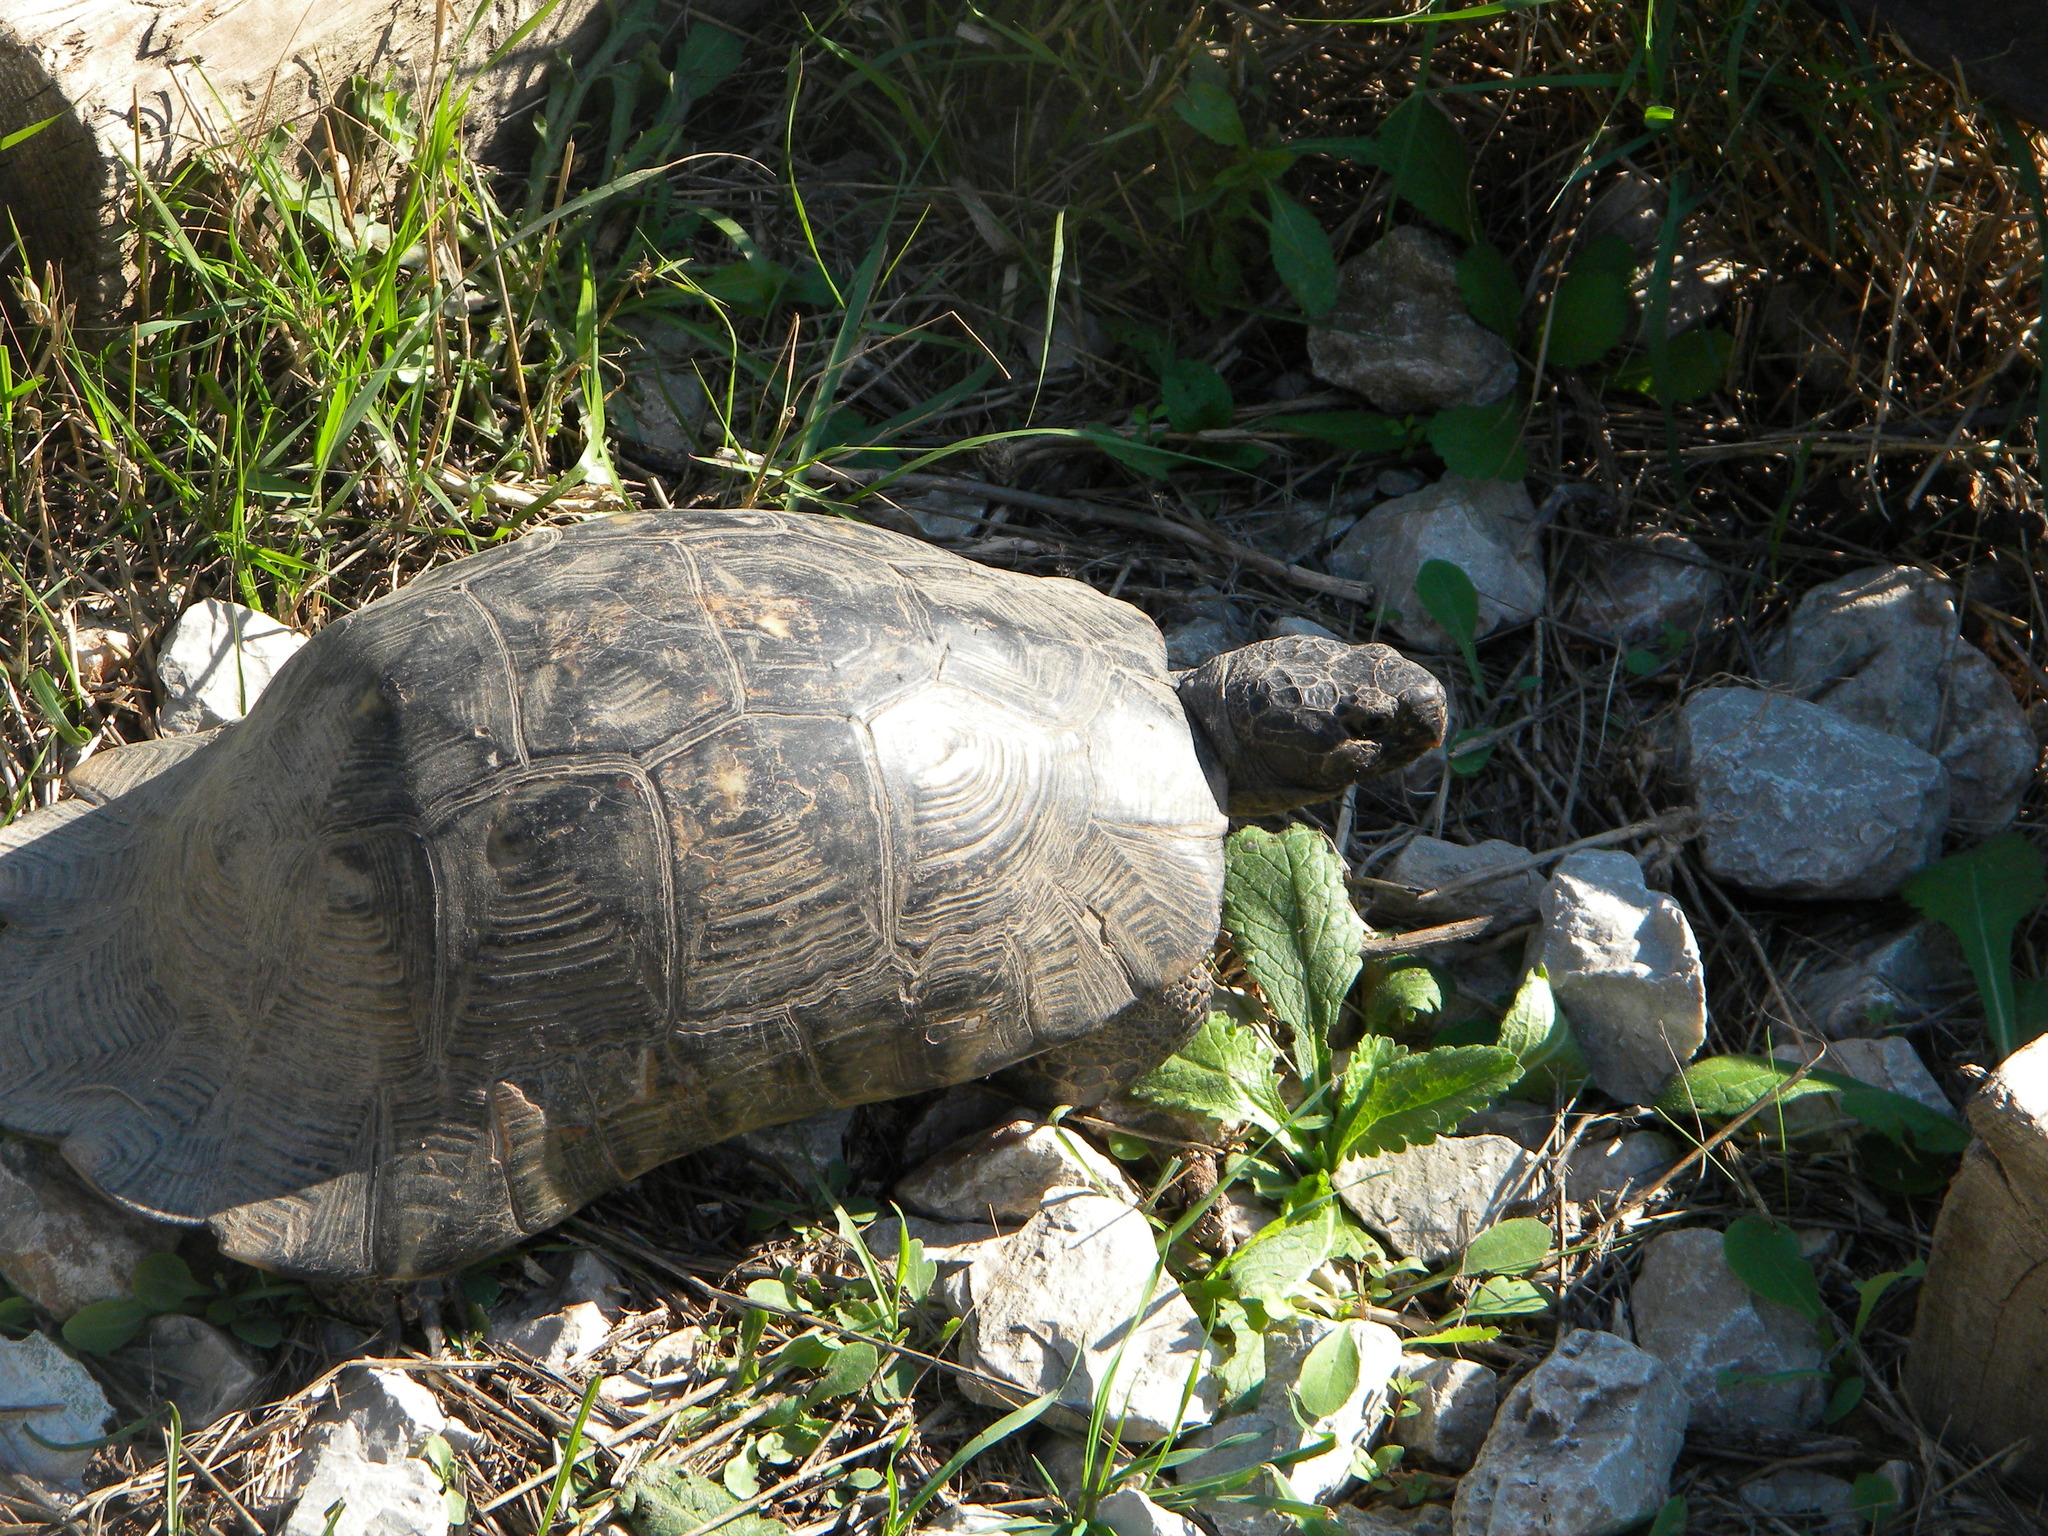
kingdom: Animalia
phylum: Chordata
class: Testudines
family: Testudinidae
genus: Testudo
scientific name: Testudo marginata
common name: Marginated tortoise
